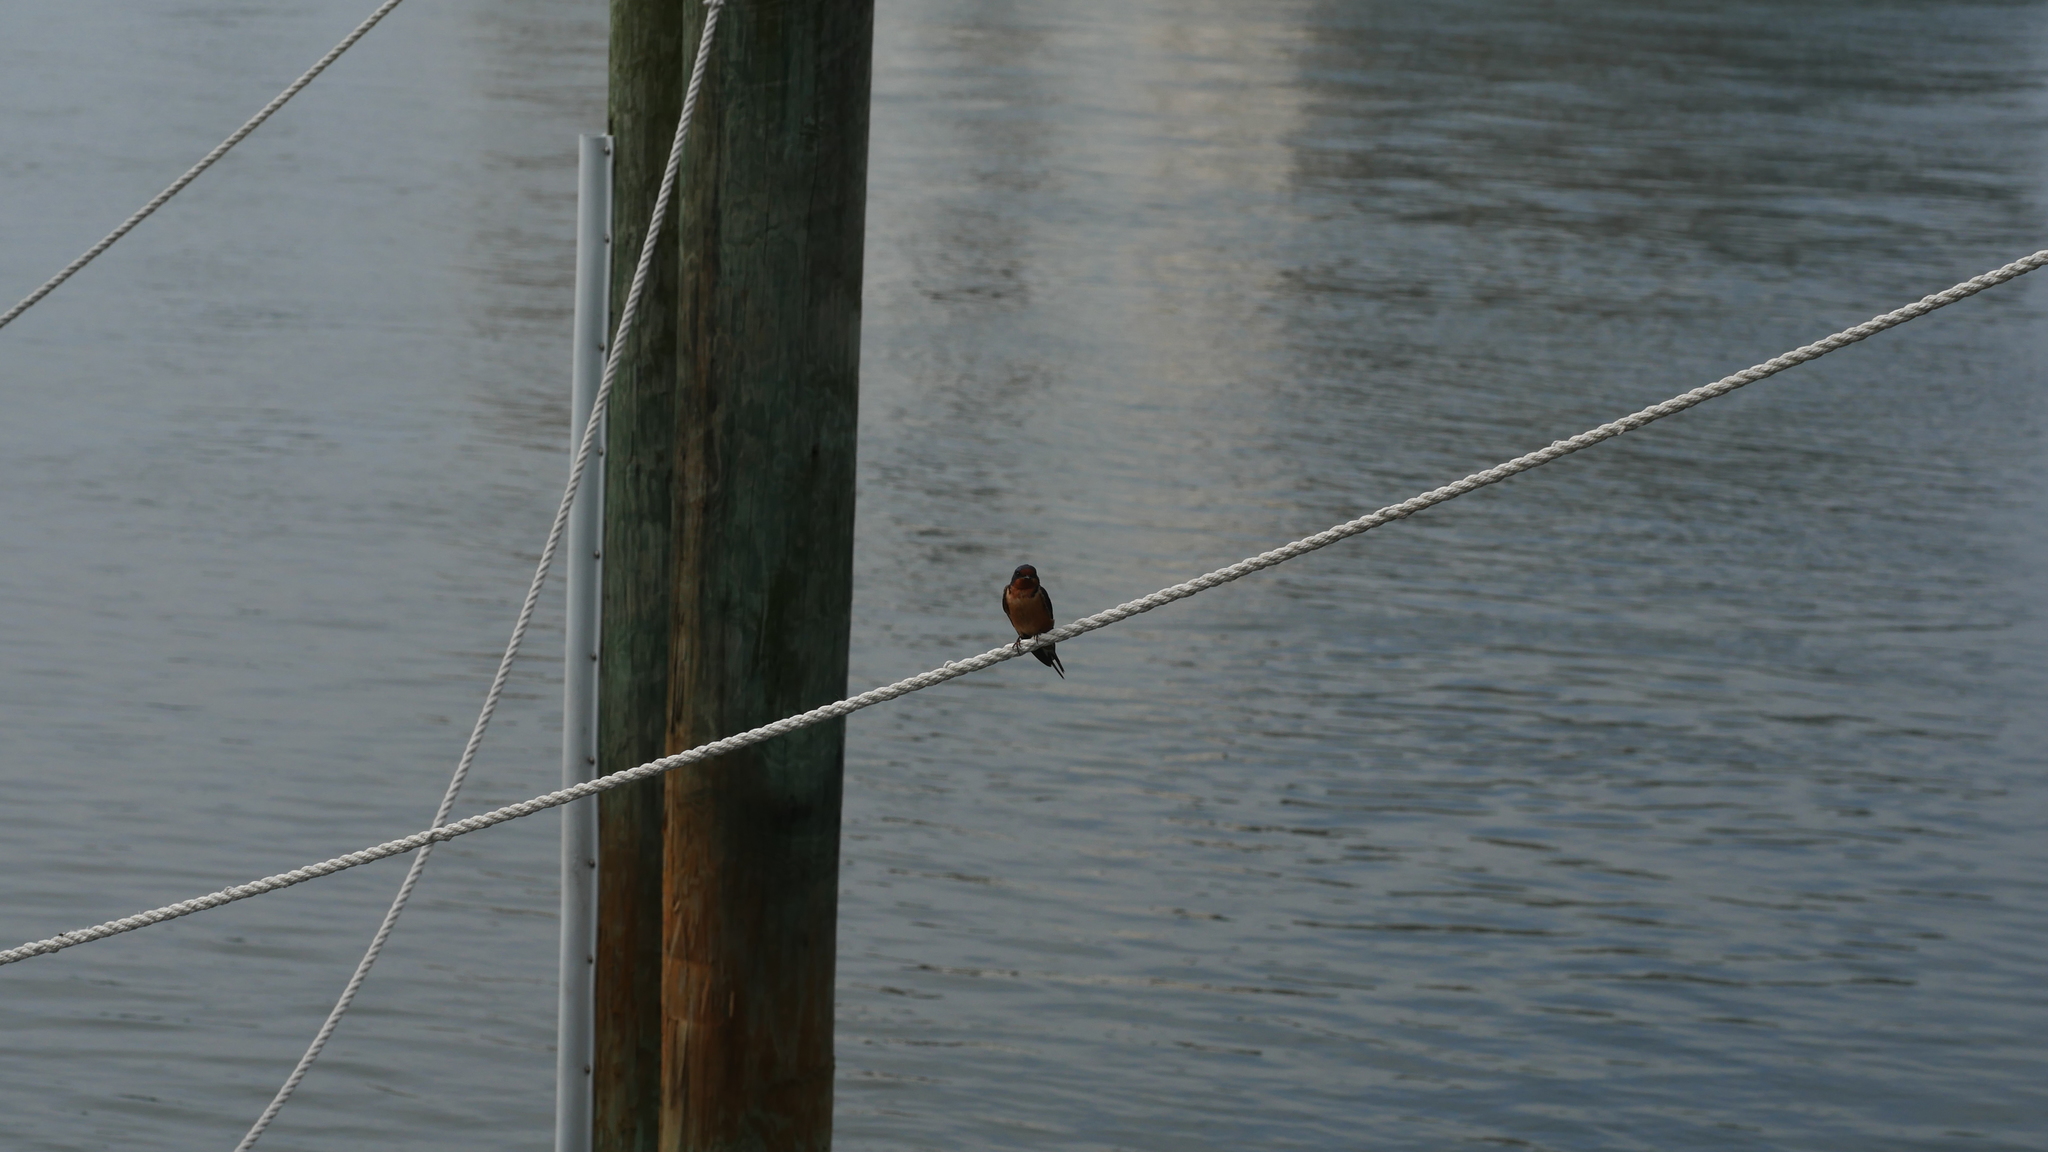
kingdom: Animalia
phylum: Chordata
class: Aves
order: Passeriformes
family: Hirundinidae
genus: Hirundo
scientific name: Hirundo rustica
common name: Barn swallow
